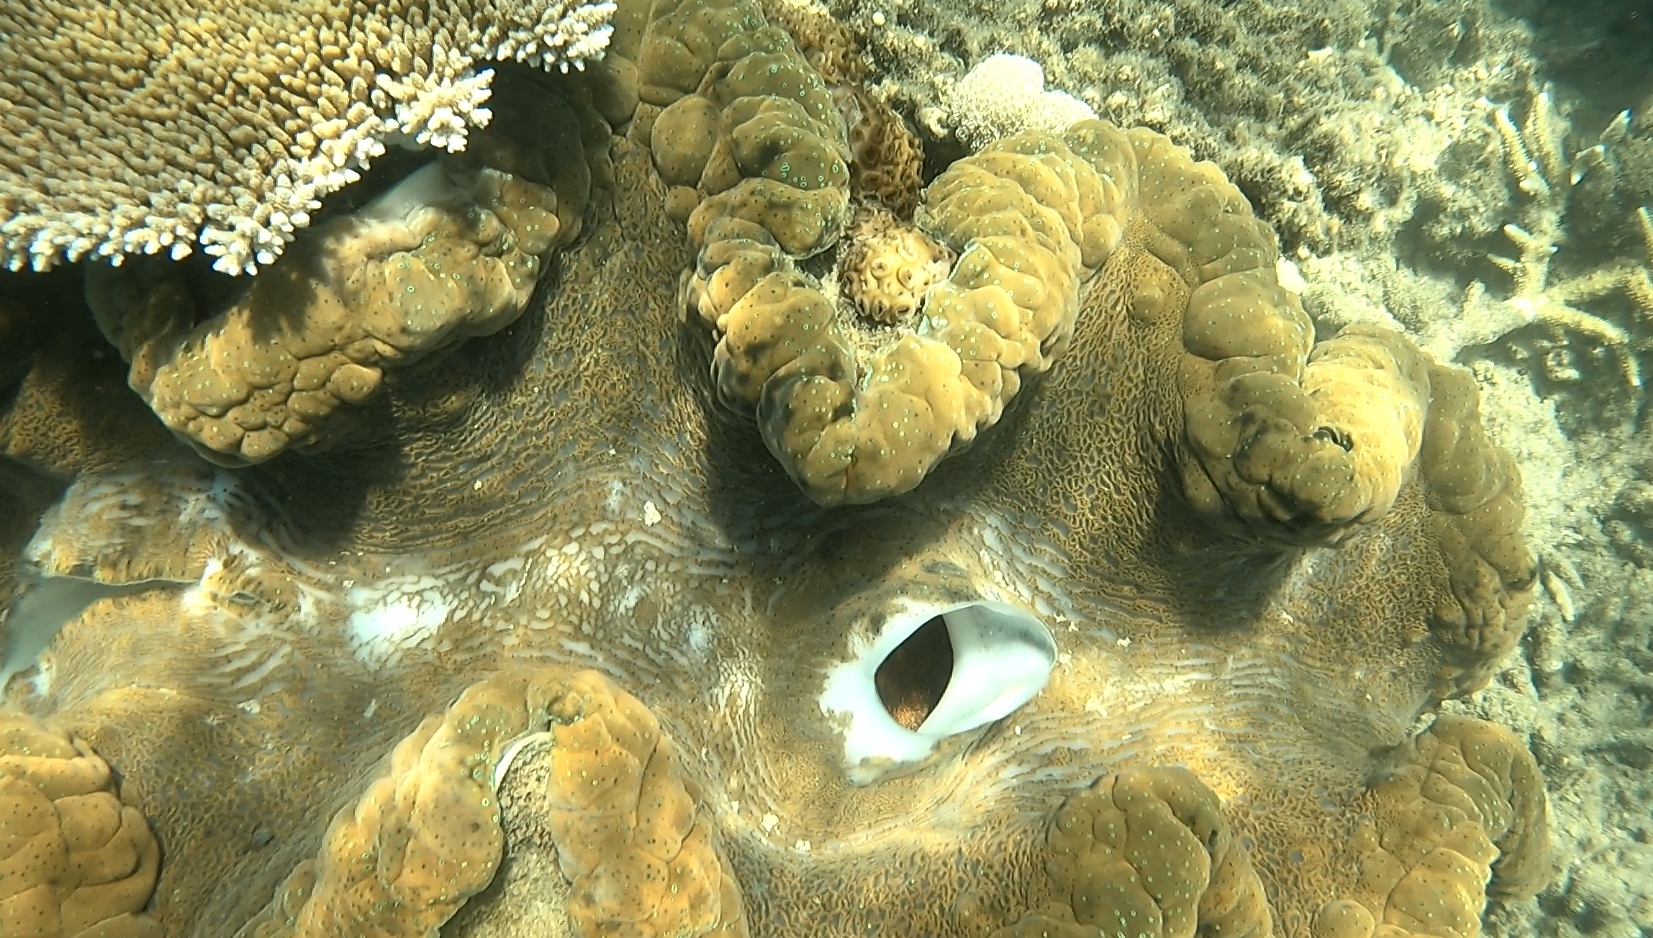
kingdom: Animalia
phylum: Mollusca
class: Bivalvia
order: Cardiida
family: Cardiidae
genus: Tridacna
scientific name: Tridacna gigas
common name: Giant clam
